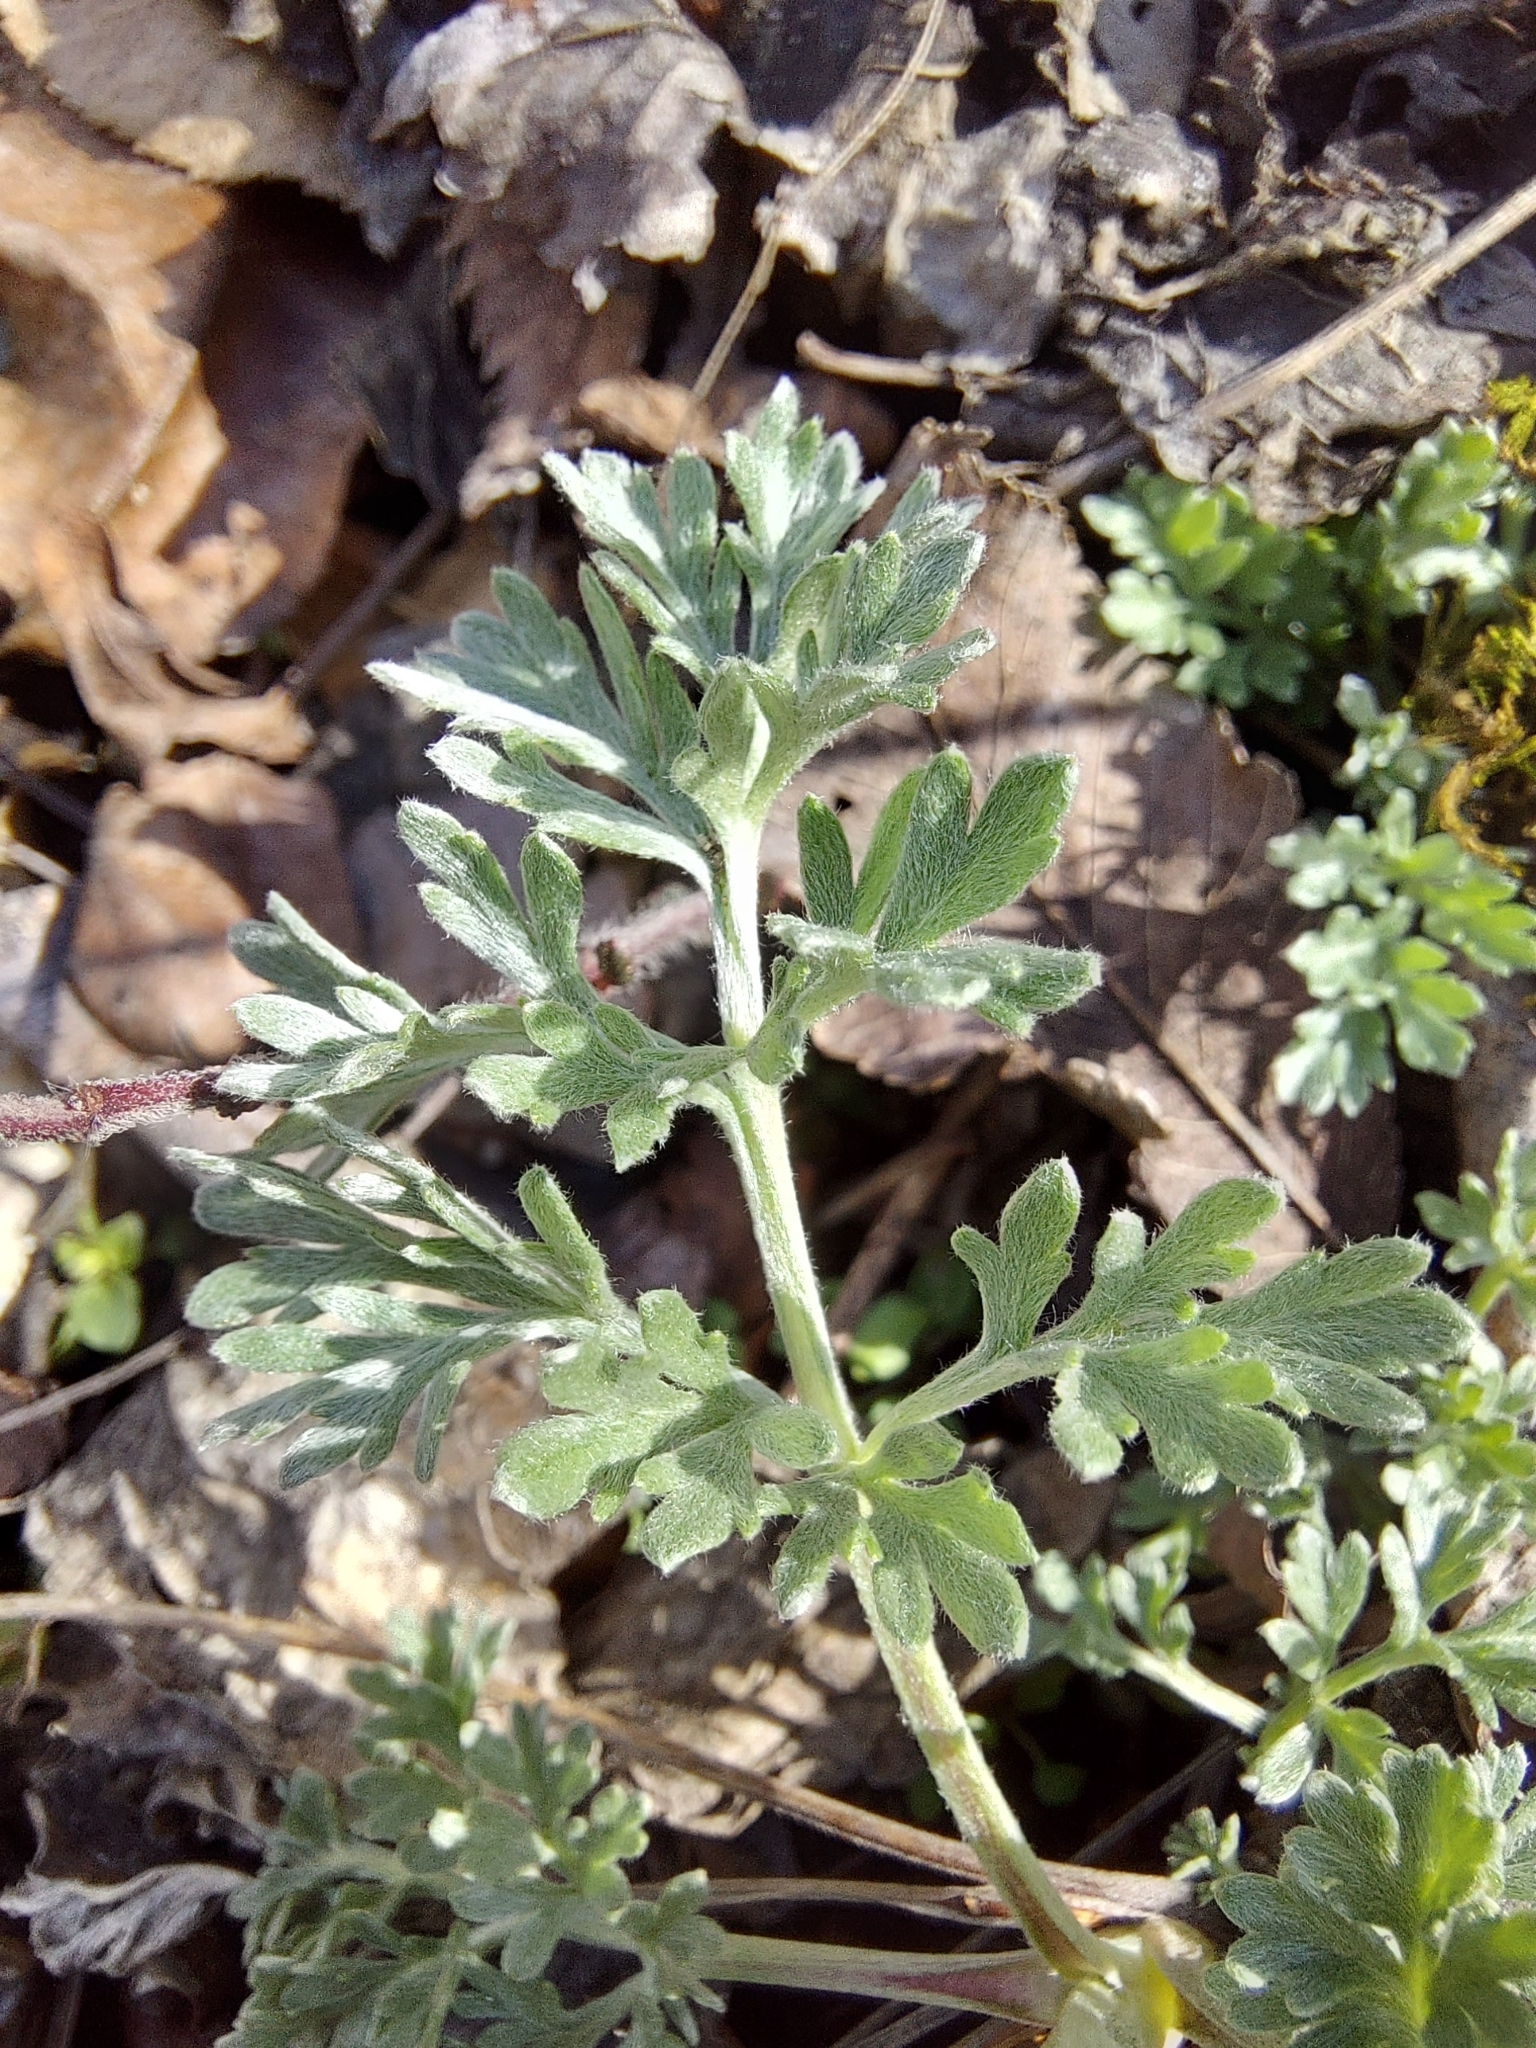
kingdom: Plantae
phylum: Tracheophyta
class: Magnoliopsida
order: Asterales
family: Asteraceae
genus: Artemisia
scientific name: Artemisia absinthium
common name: Wormwood
